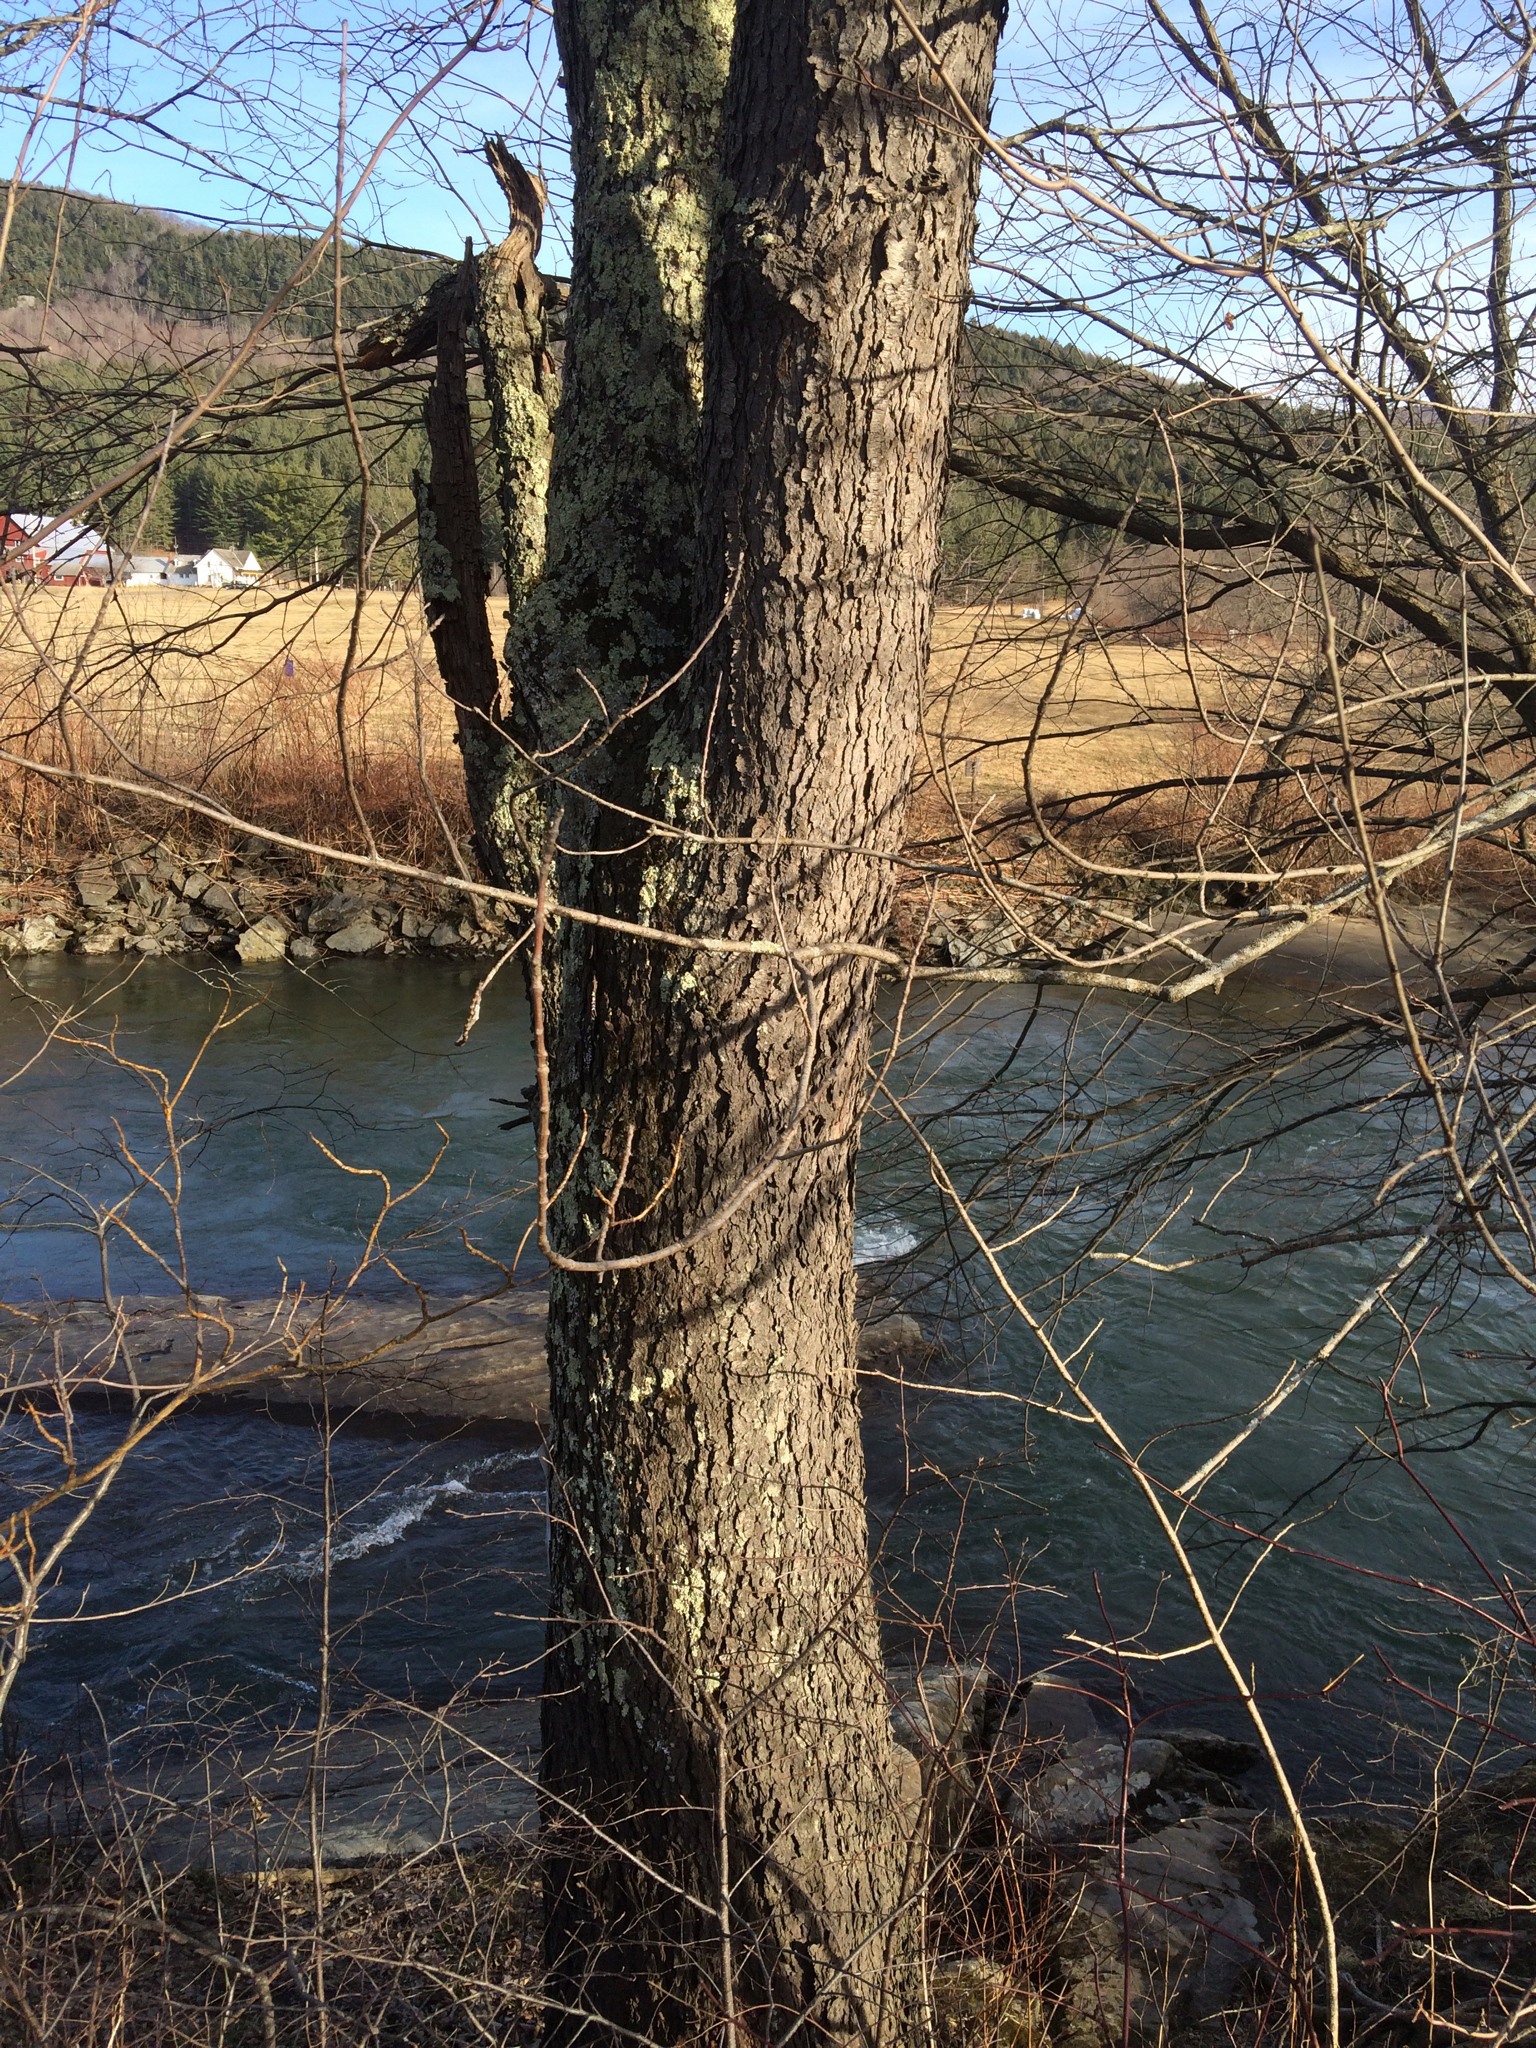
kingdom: Plantae
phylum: Tracheophyta
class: Magnoliopsida
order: Rosales
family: Rosaceae
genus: Prunus
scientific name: Prunus serotina
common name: Black cherry
